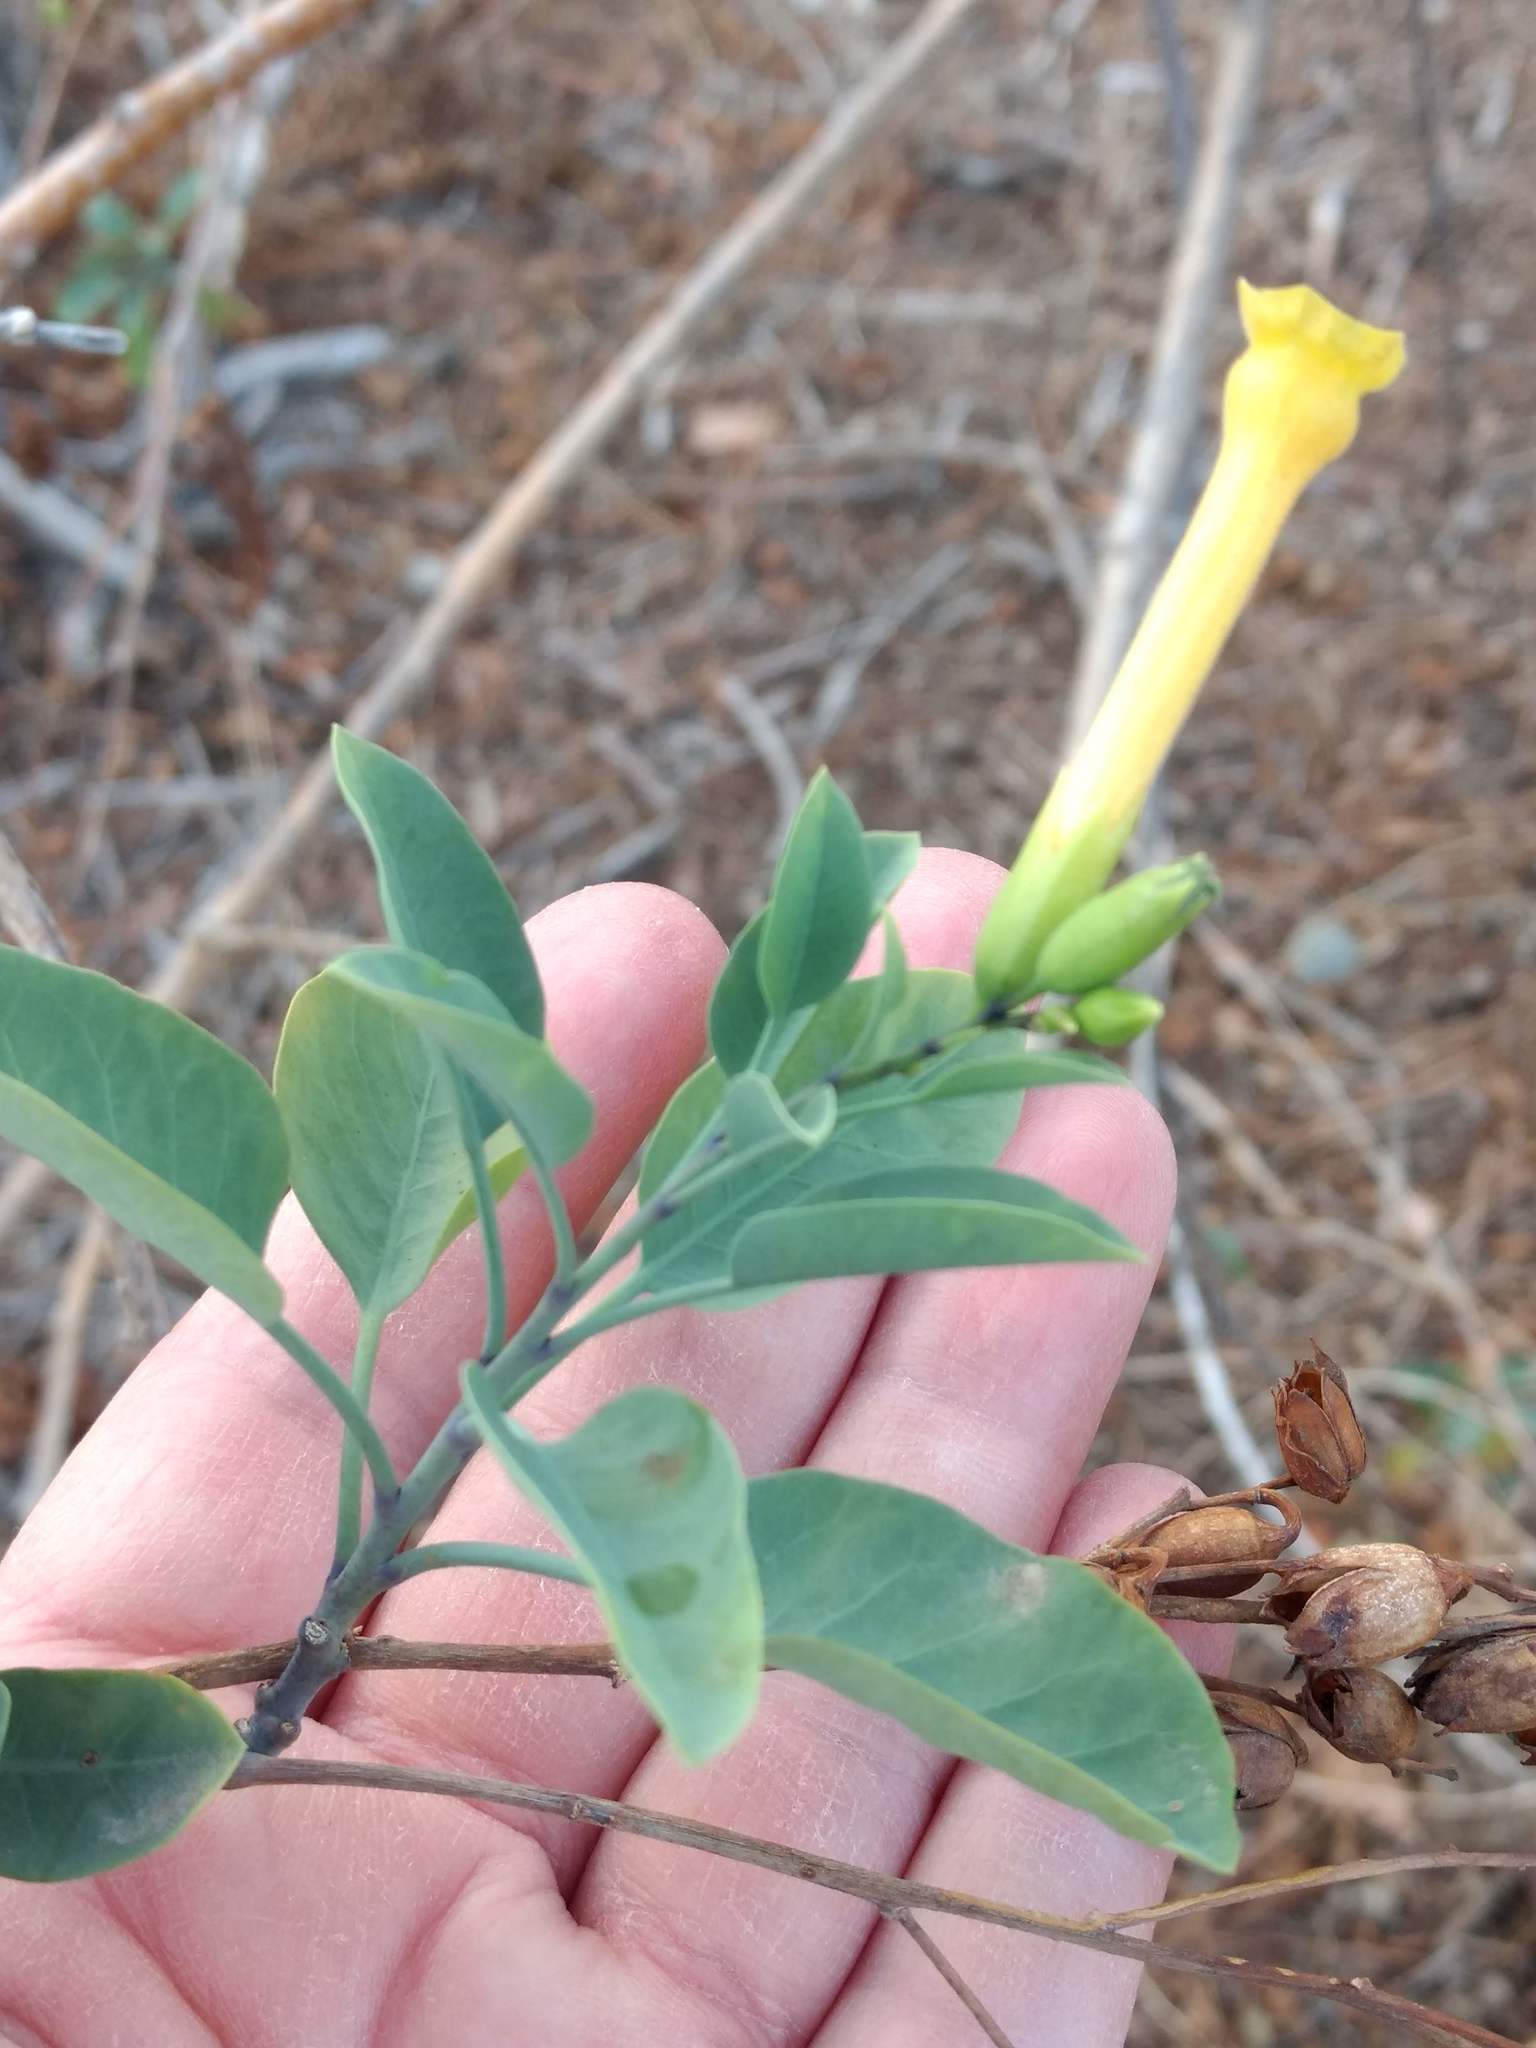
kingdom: Plantae
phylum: Tracheophyta
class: Magnoliopsida
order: Solanales
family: Solanaceae
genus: Nicotiana
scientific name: Nicotiana glauca
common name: Tree tobacco
